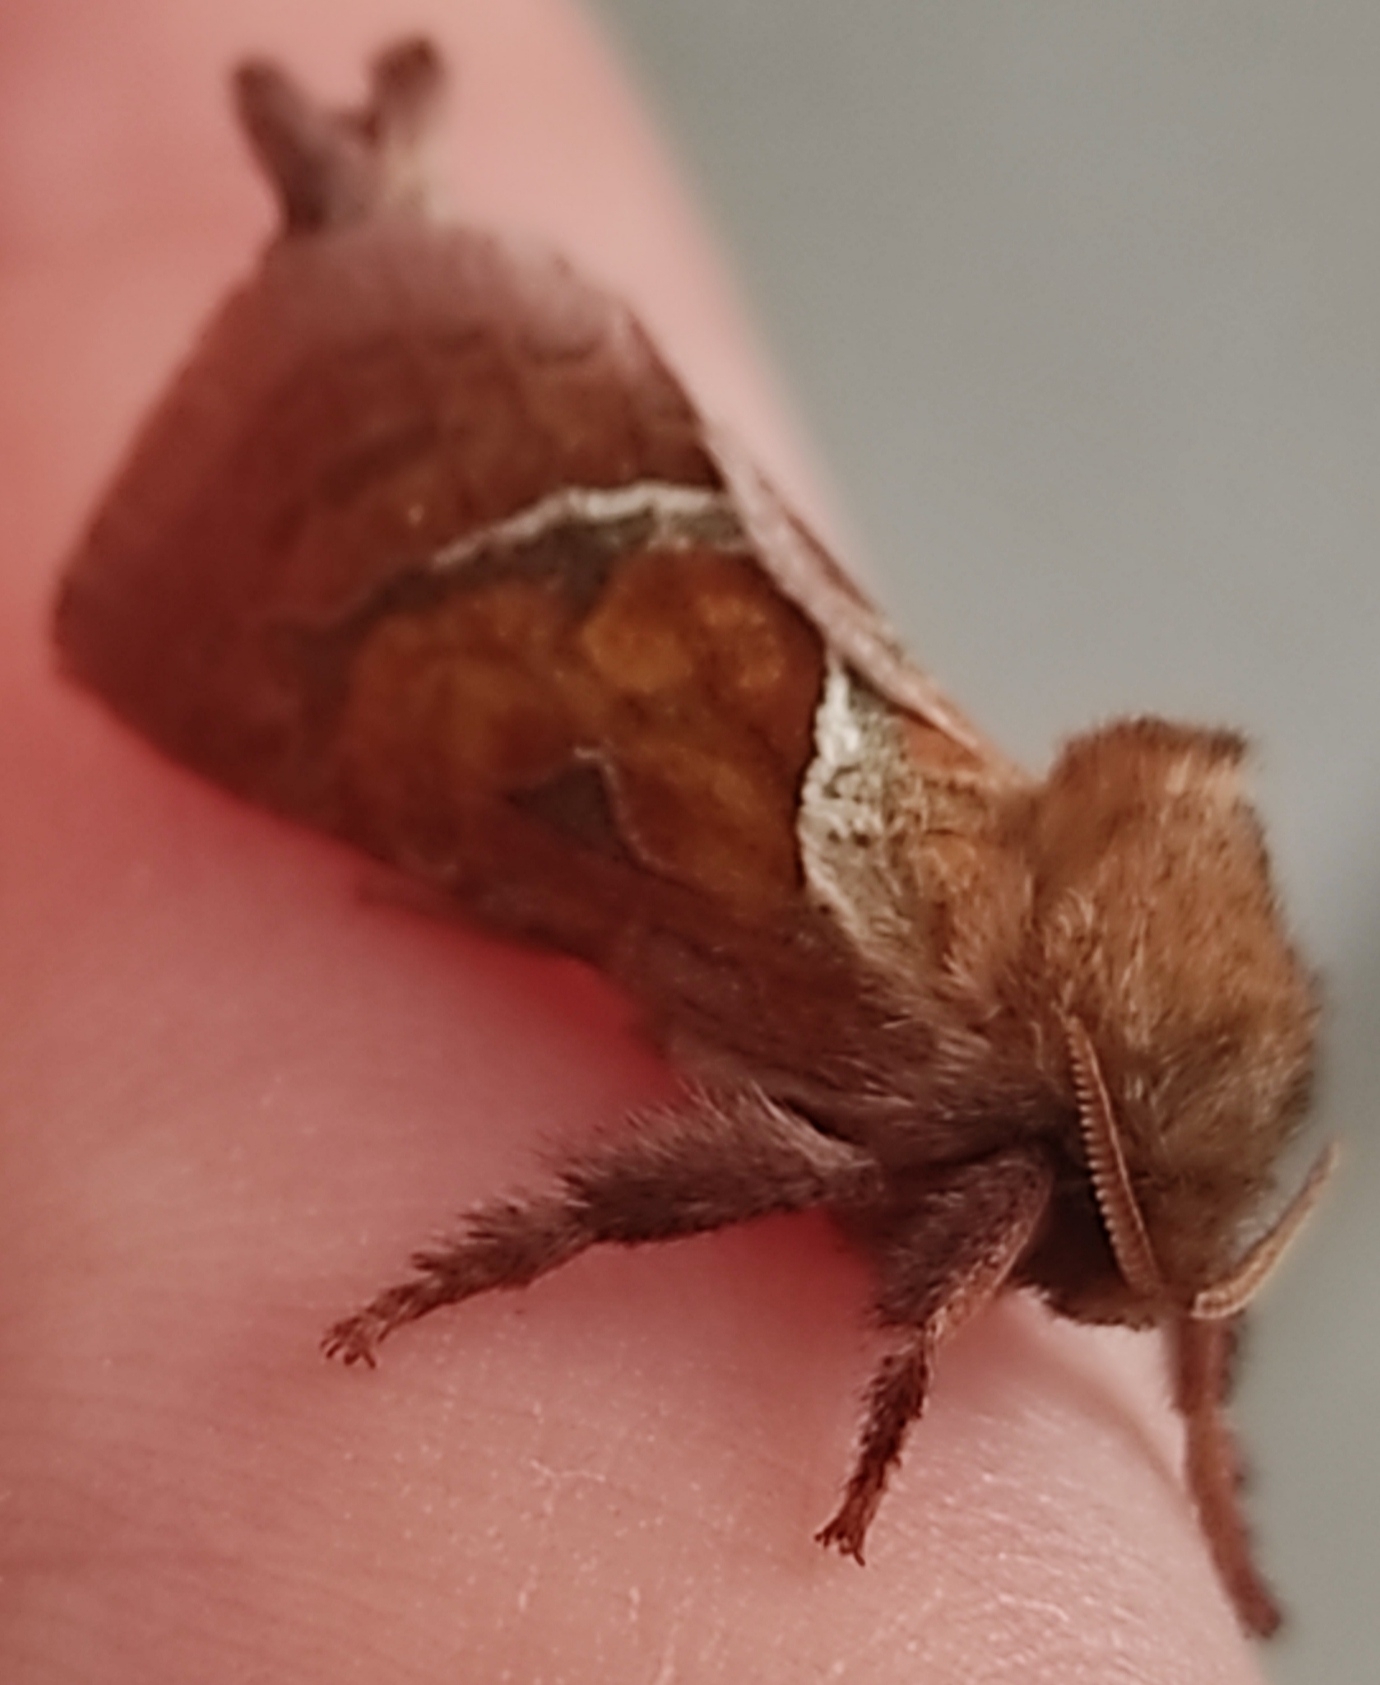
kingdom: Animalia
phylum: Arthropoda
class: Insecta
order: Lepidoptera
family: Hepialidae
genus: Triodia
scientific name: Triodia sylvina
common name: Orange swift
